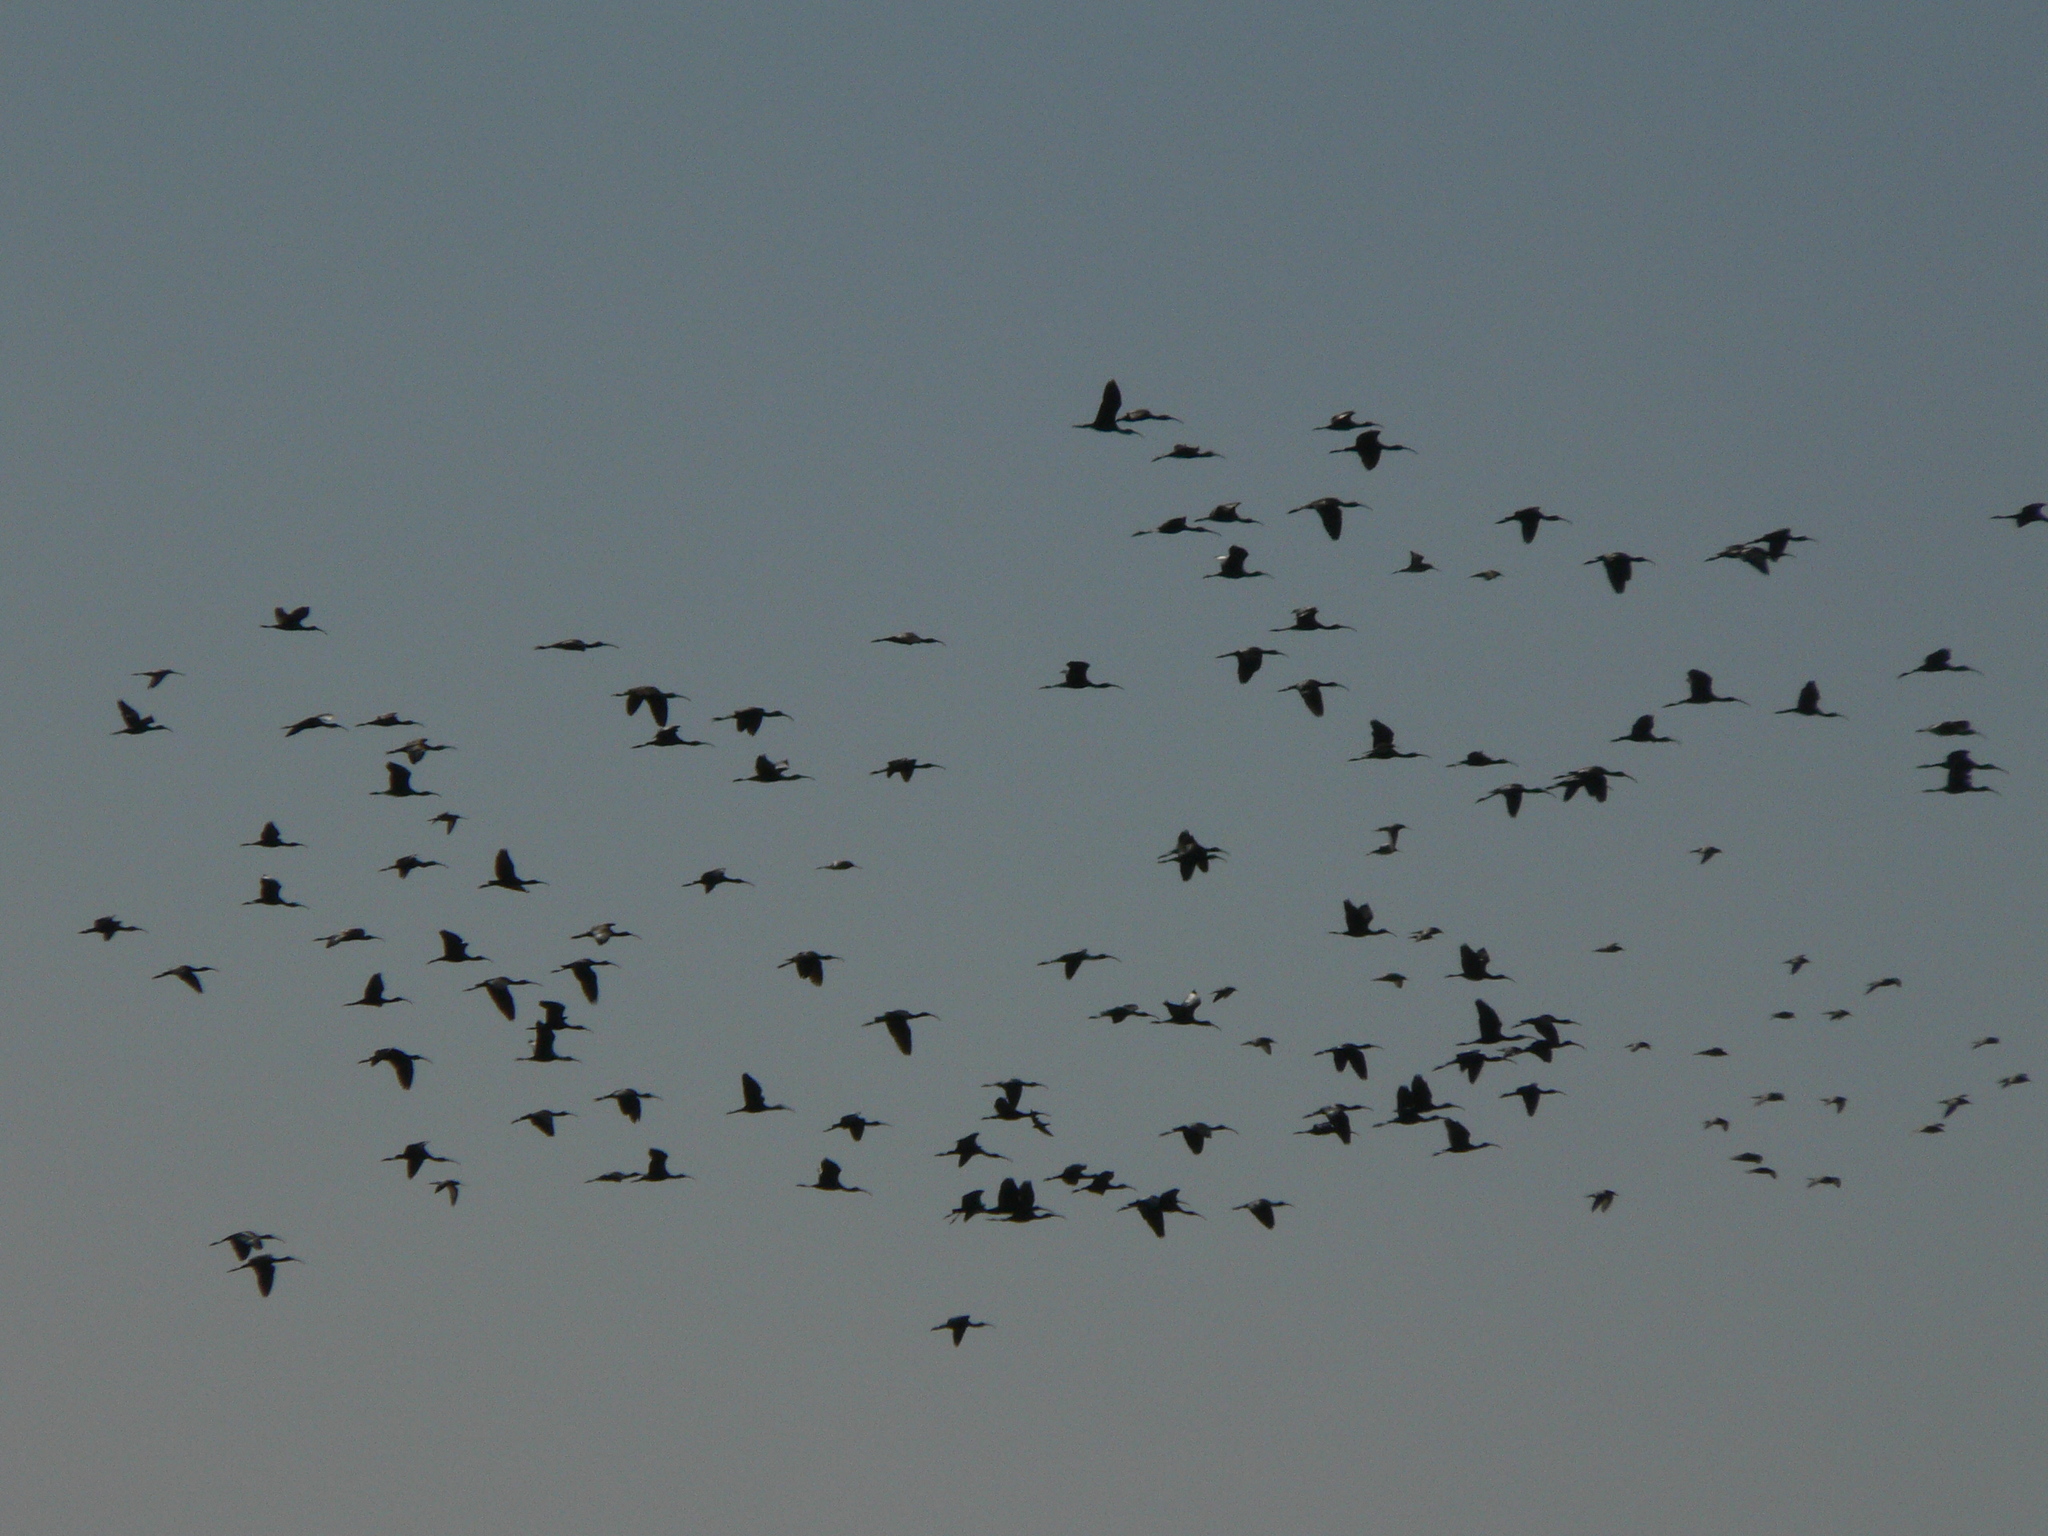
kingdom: Animalia
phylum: Chordata
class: Aves
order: Pelecaniformes
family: Threskiornithidae
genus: Plegadis
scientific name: Plegadis falcinellus
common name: Glossy ibis
